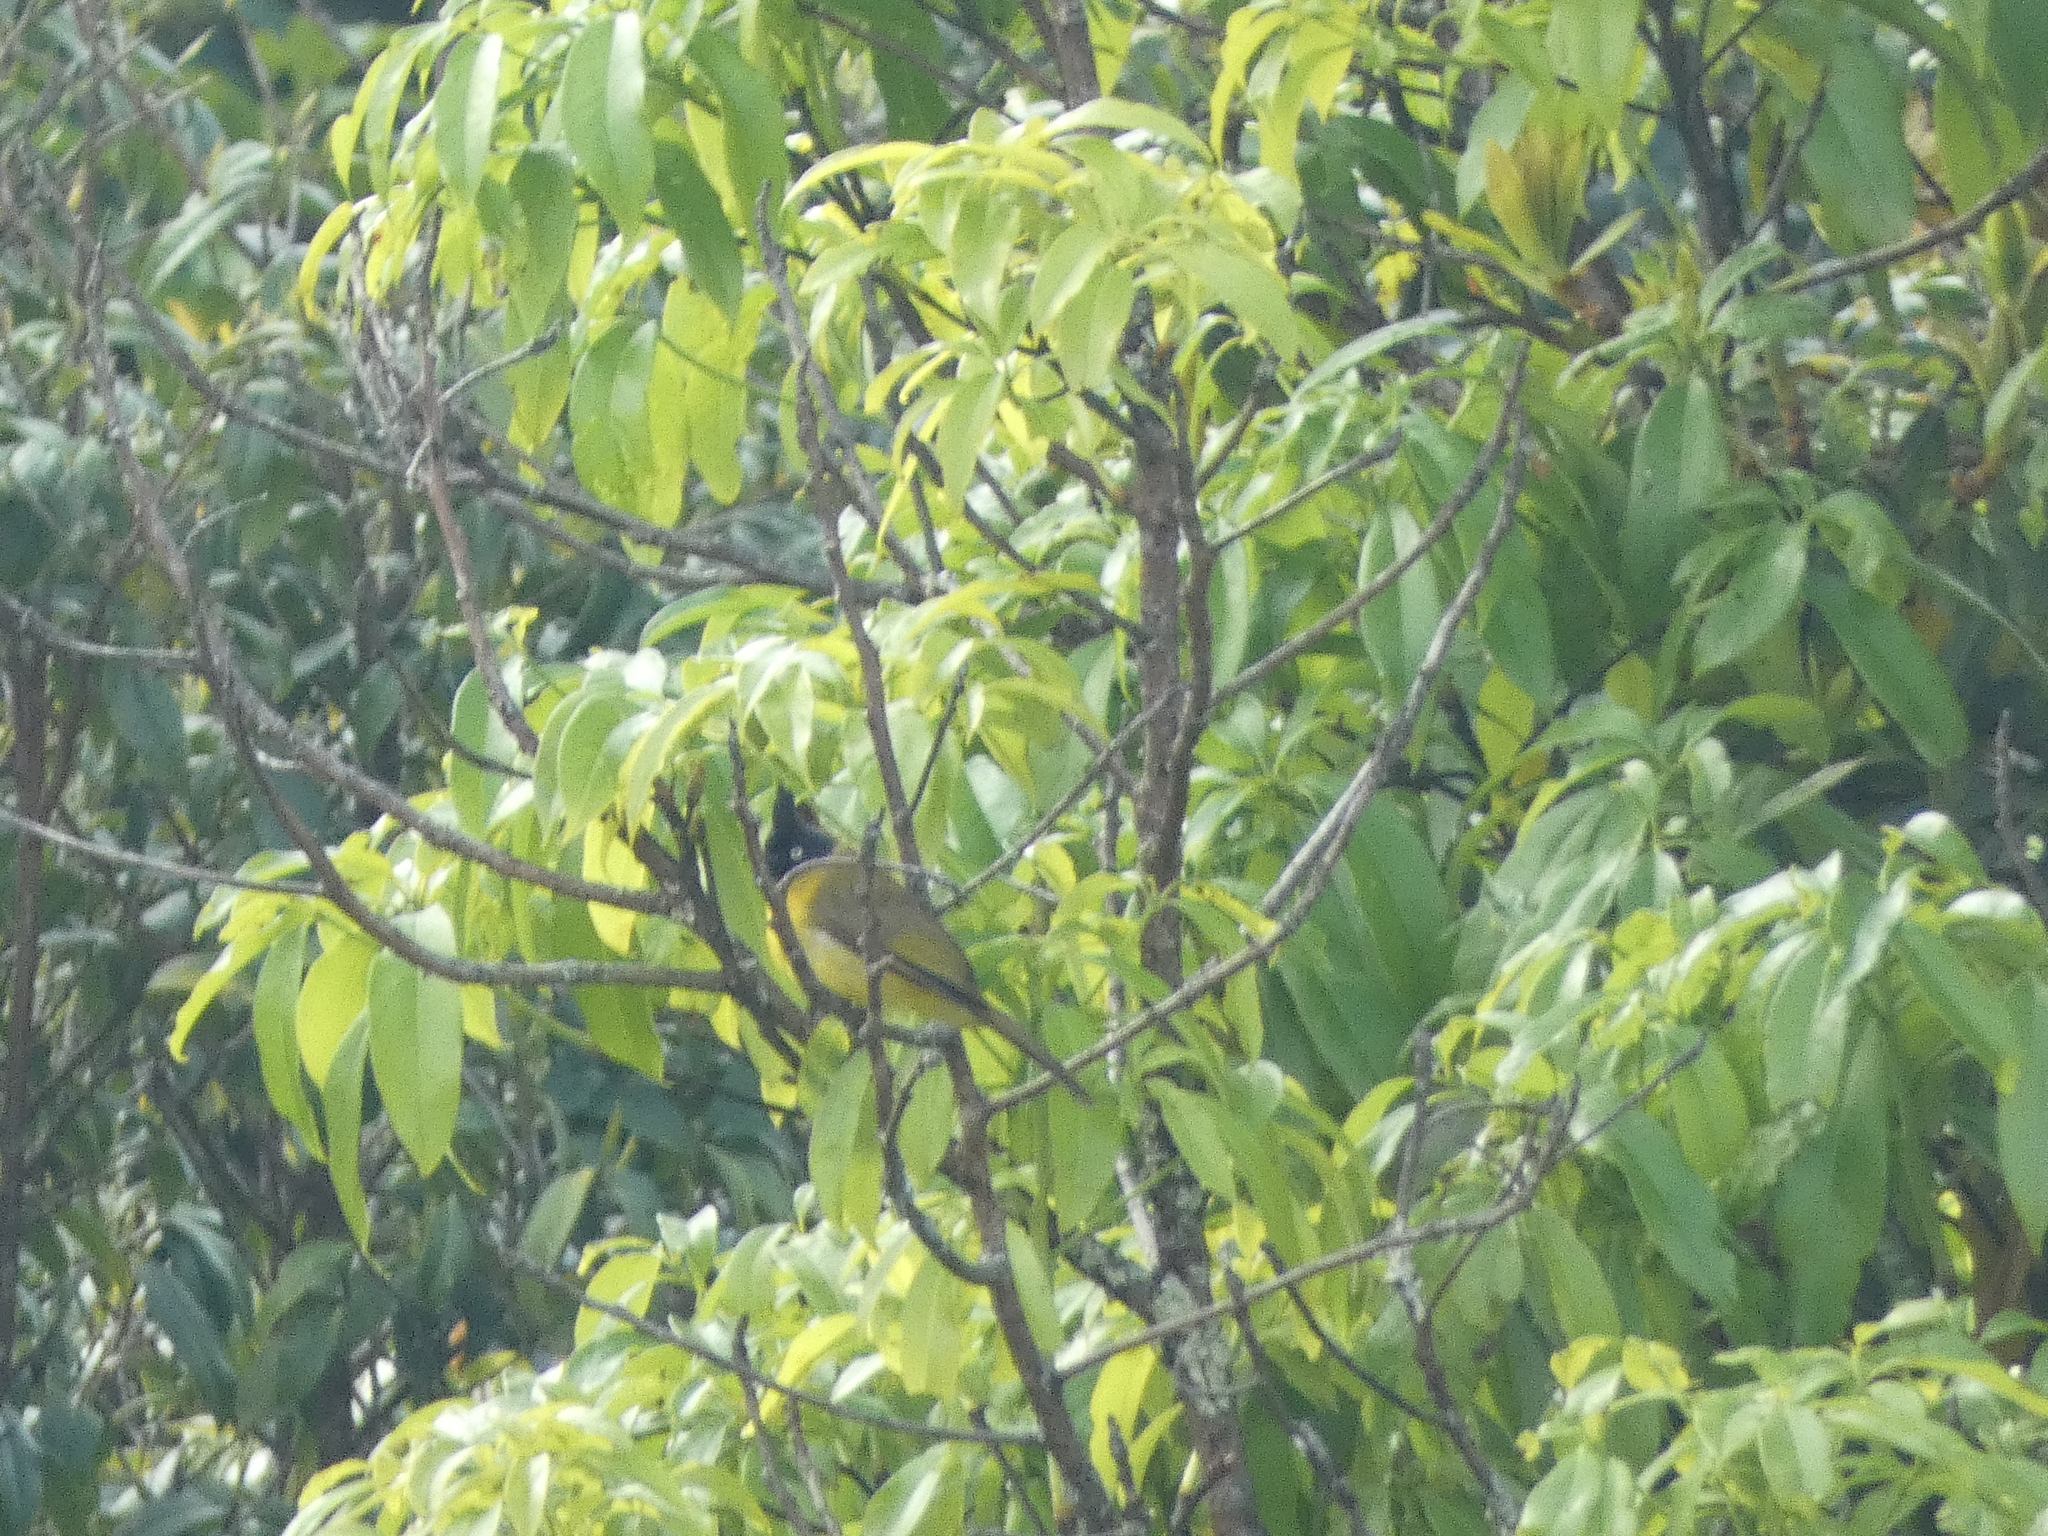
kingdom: Animalia
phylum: Chordata
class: Aves
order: Passeriformes
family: Pycnonotidae
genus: Pycnonotus
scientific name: Pycnonotus flaviventris
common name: Black-crested bulbul
